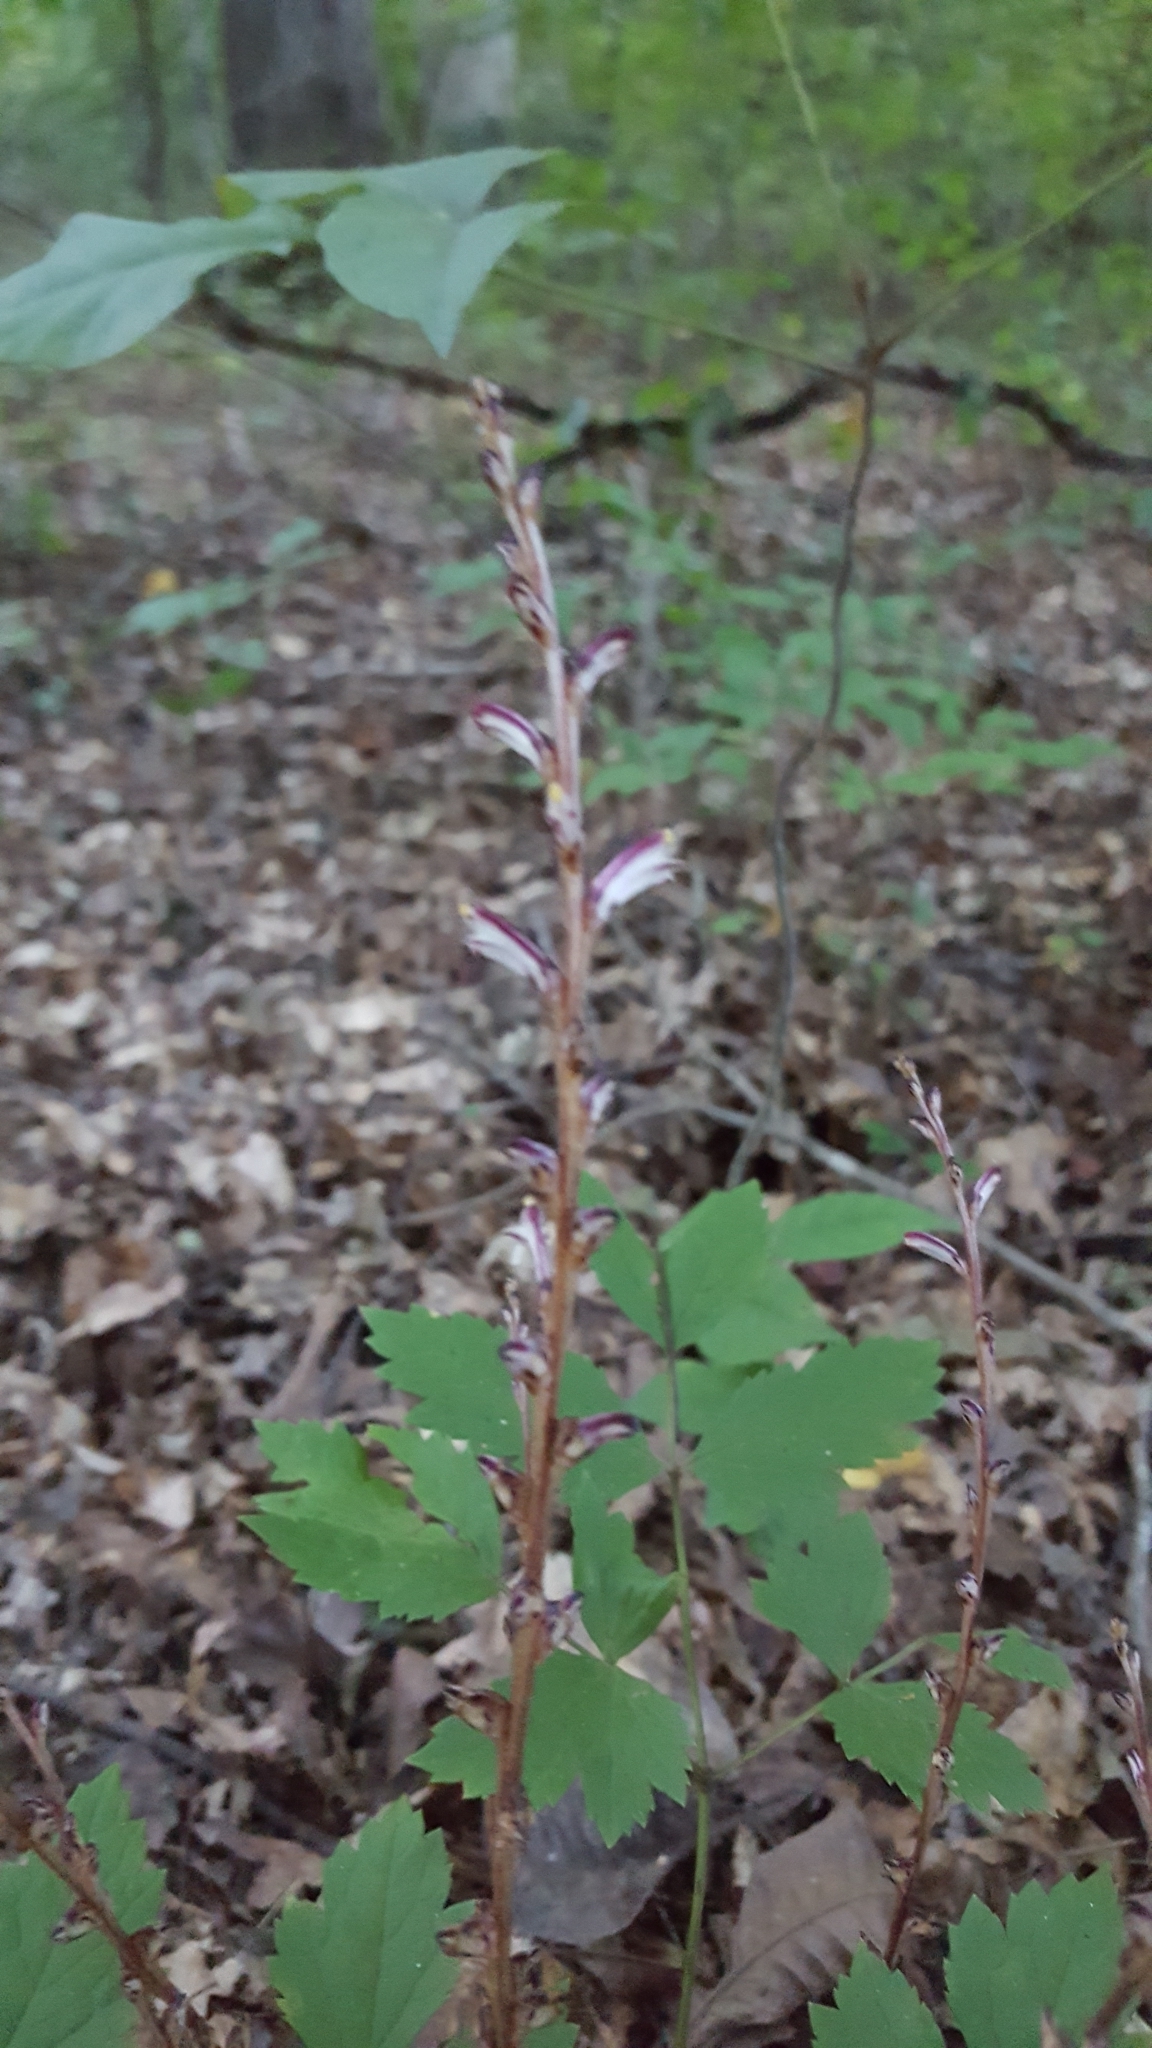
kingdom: Plantae
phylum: Tracheophyta
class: Magnoliopsida
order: Lamiales
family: Orobanchaceae
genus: Epifagus
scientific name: Epifagus virginiana
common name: Beechdrops
